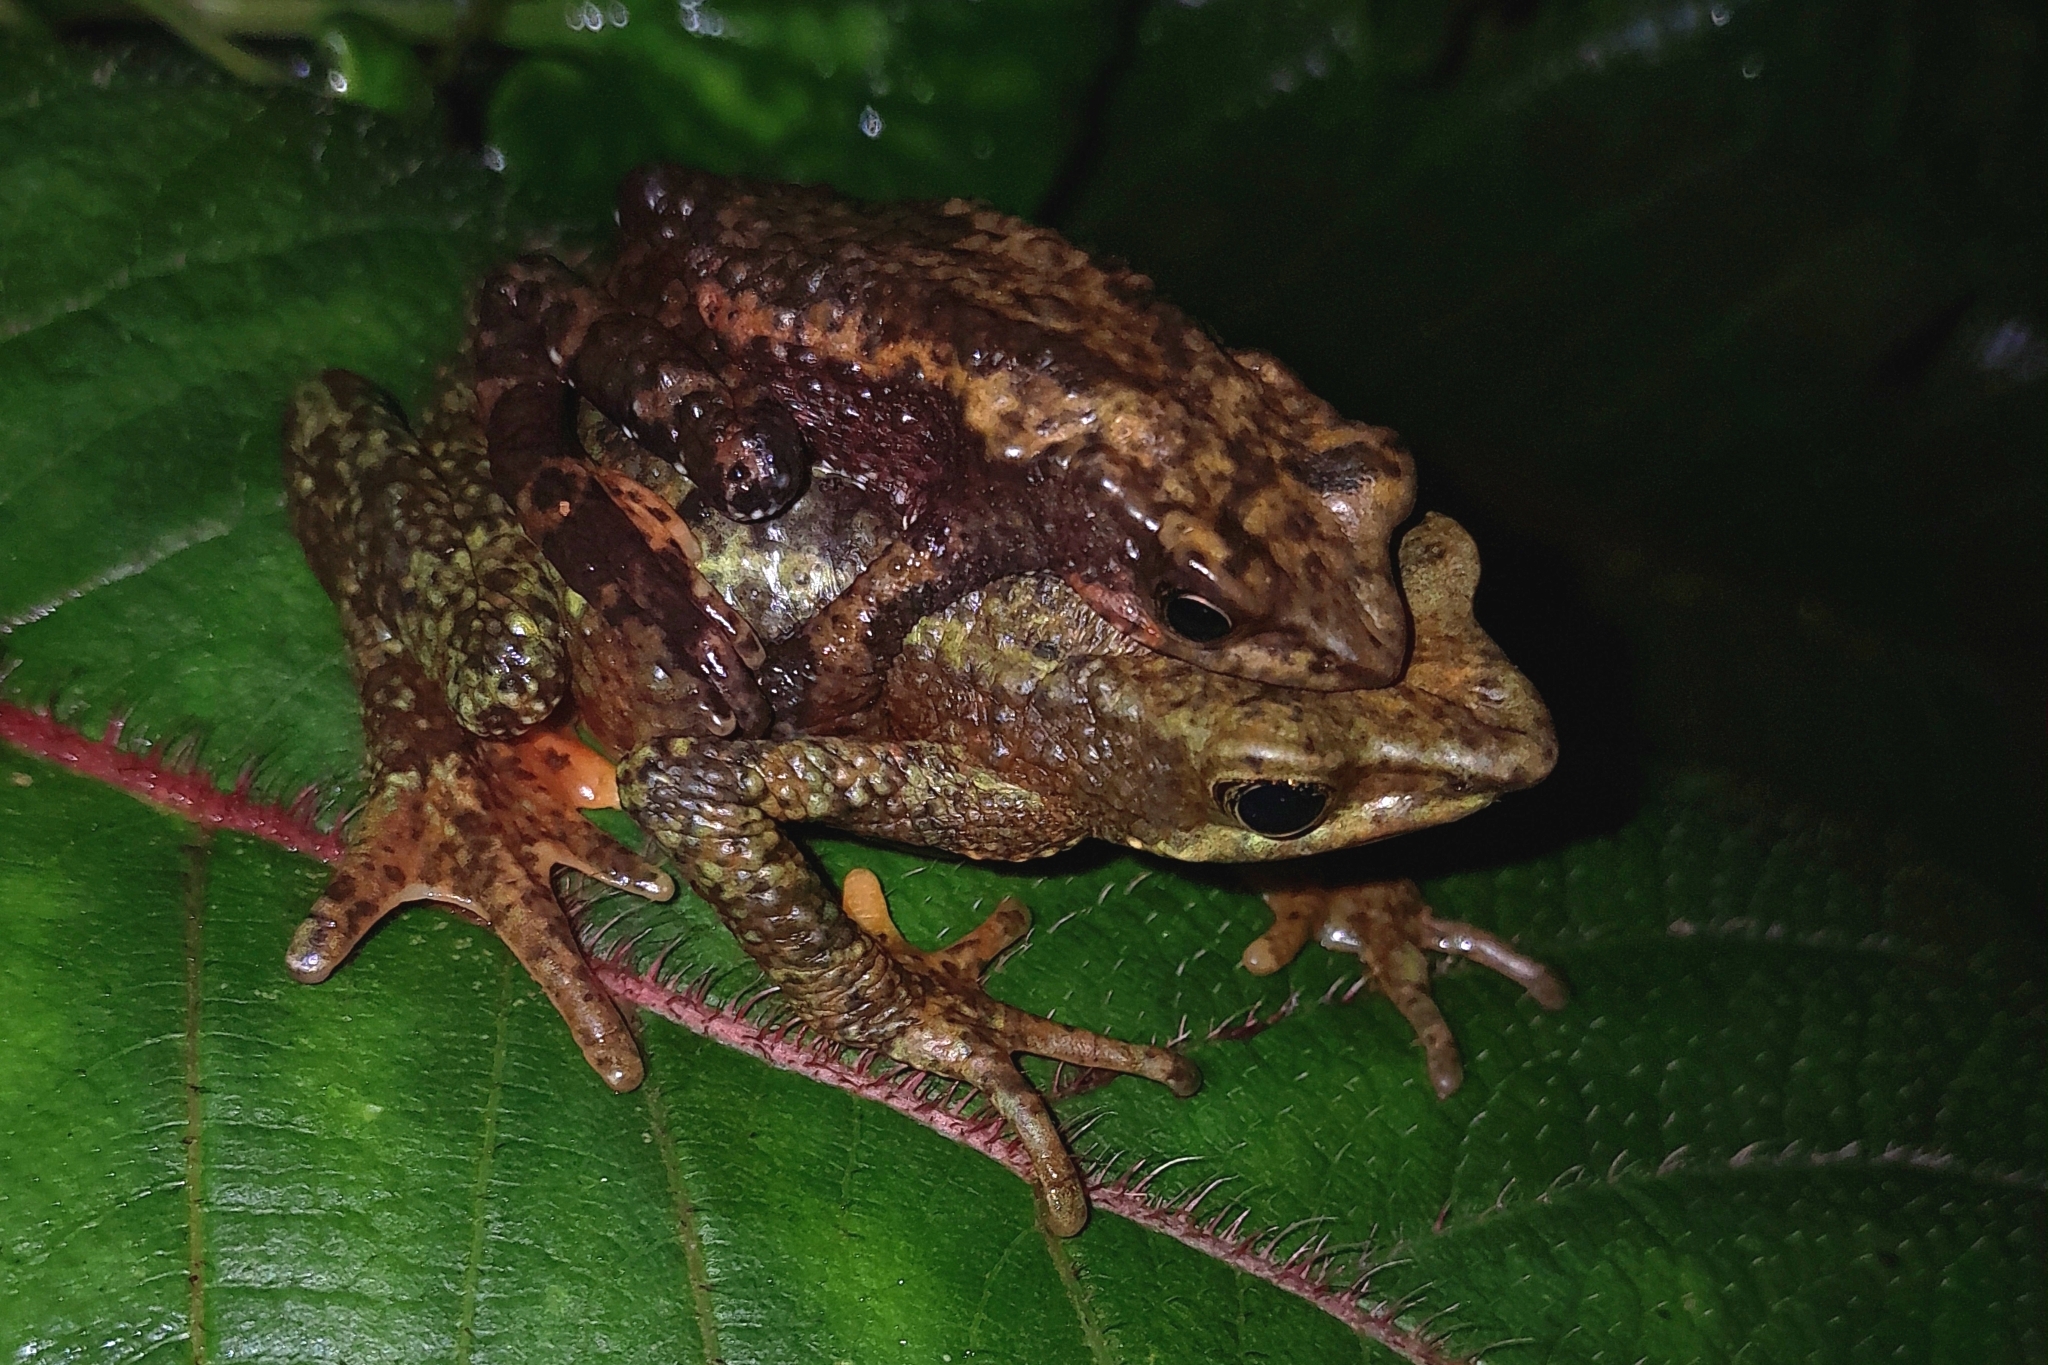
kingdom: Animalia
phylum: Chordata
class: Amphibia
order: Anura
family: Bufonidae
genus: Atelopus
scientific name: Atelopus laetissimus
